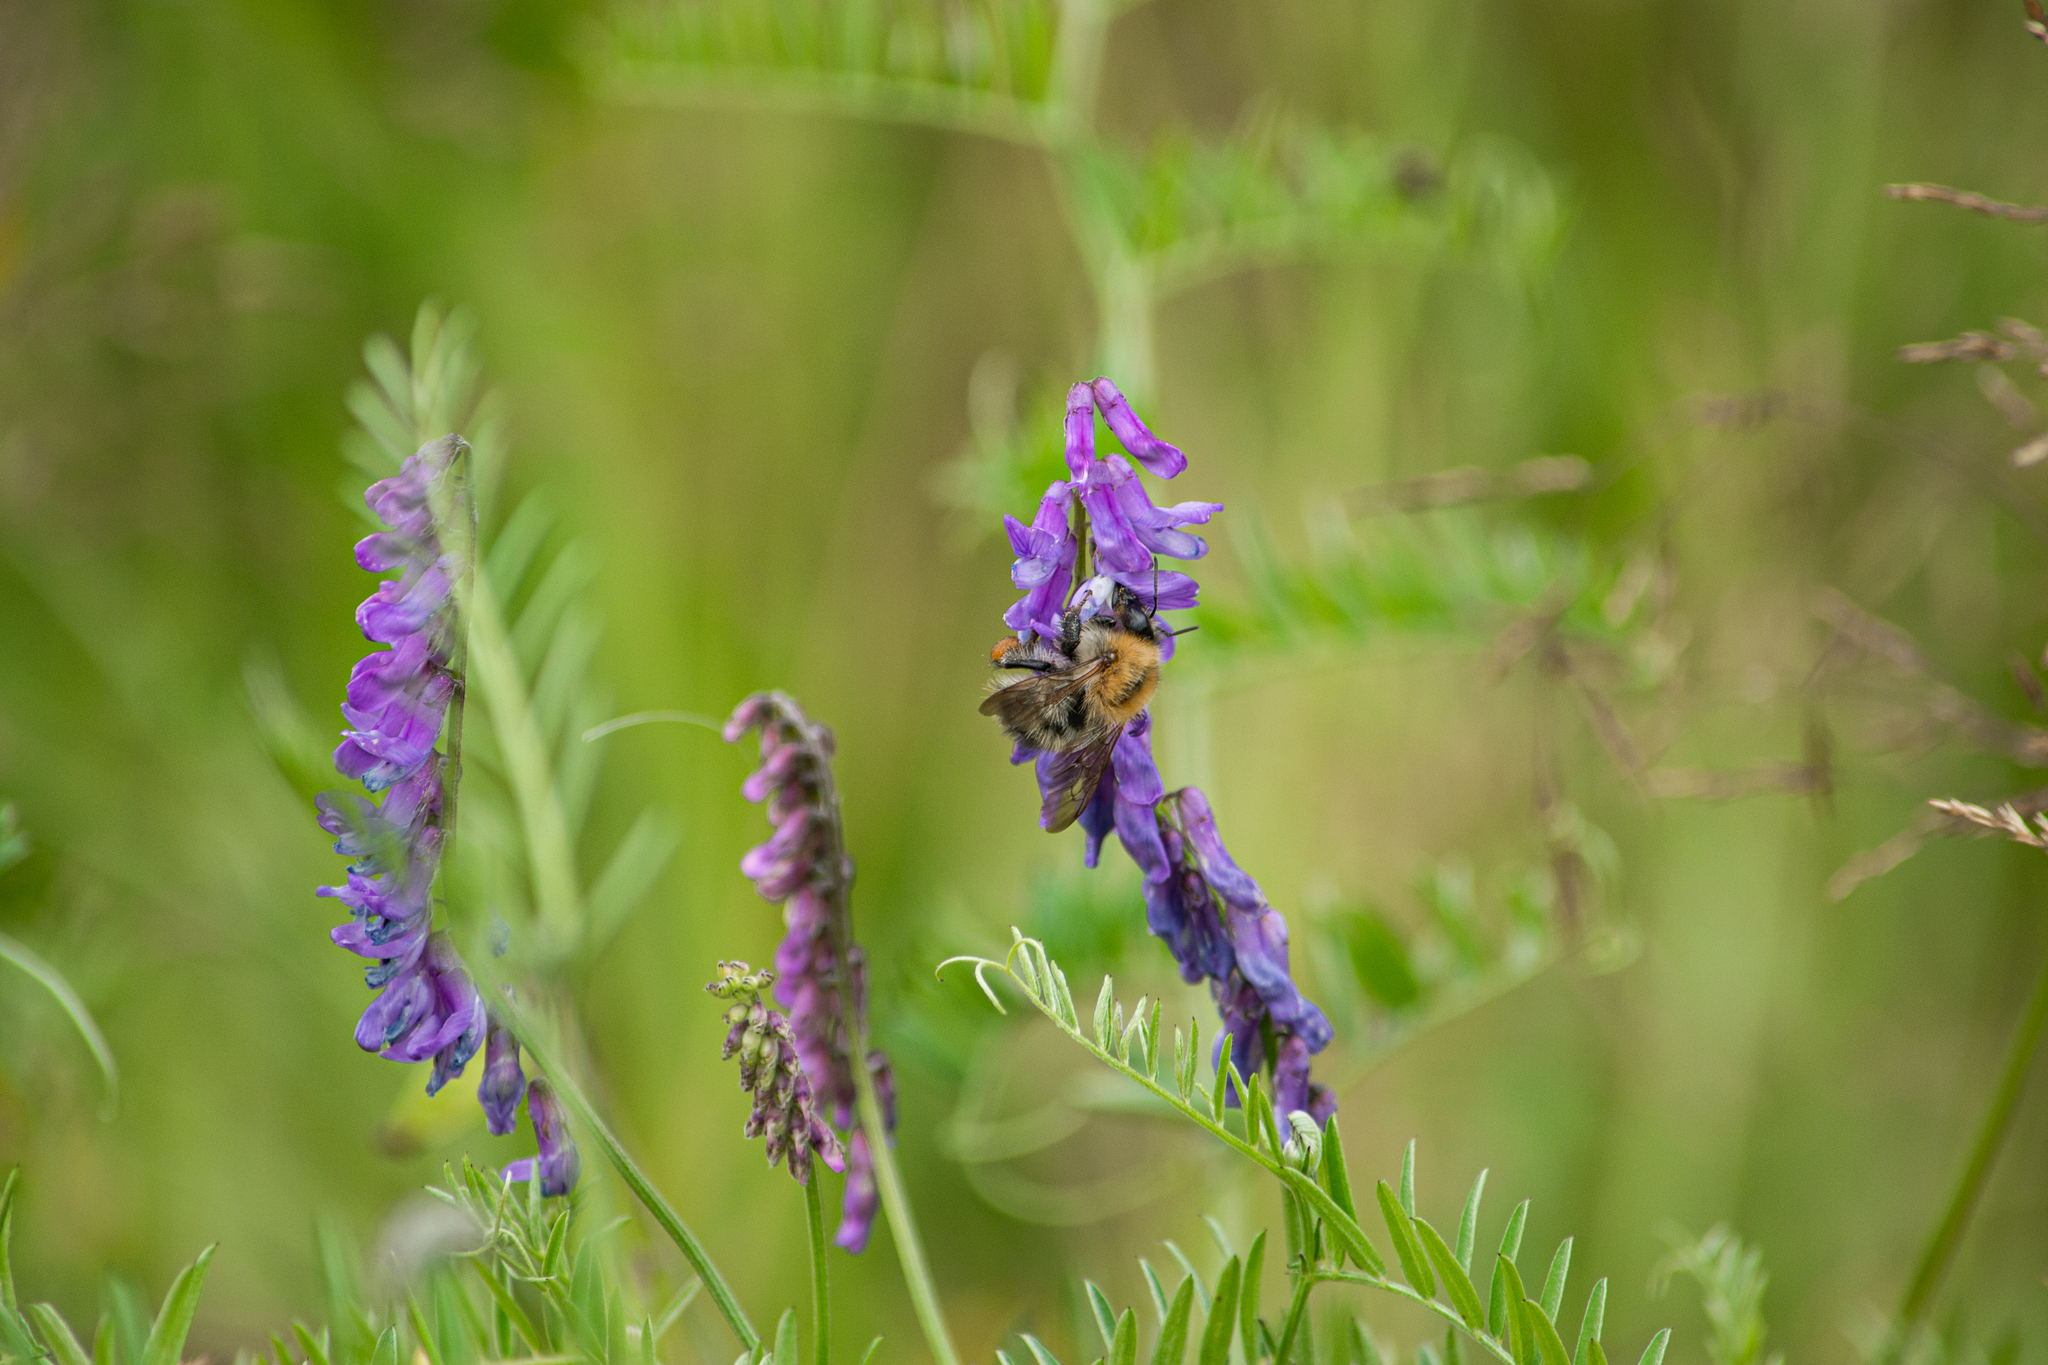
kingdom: Animalia
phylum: Arthropoda
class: Insecta
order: Hymenoptera
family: Apidae
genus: Bombus
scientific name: Bombus pascuorum
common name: Common carder bee
